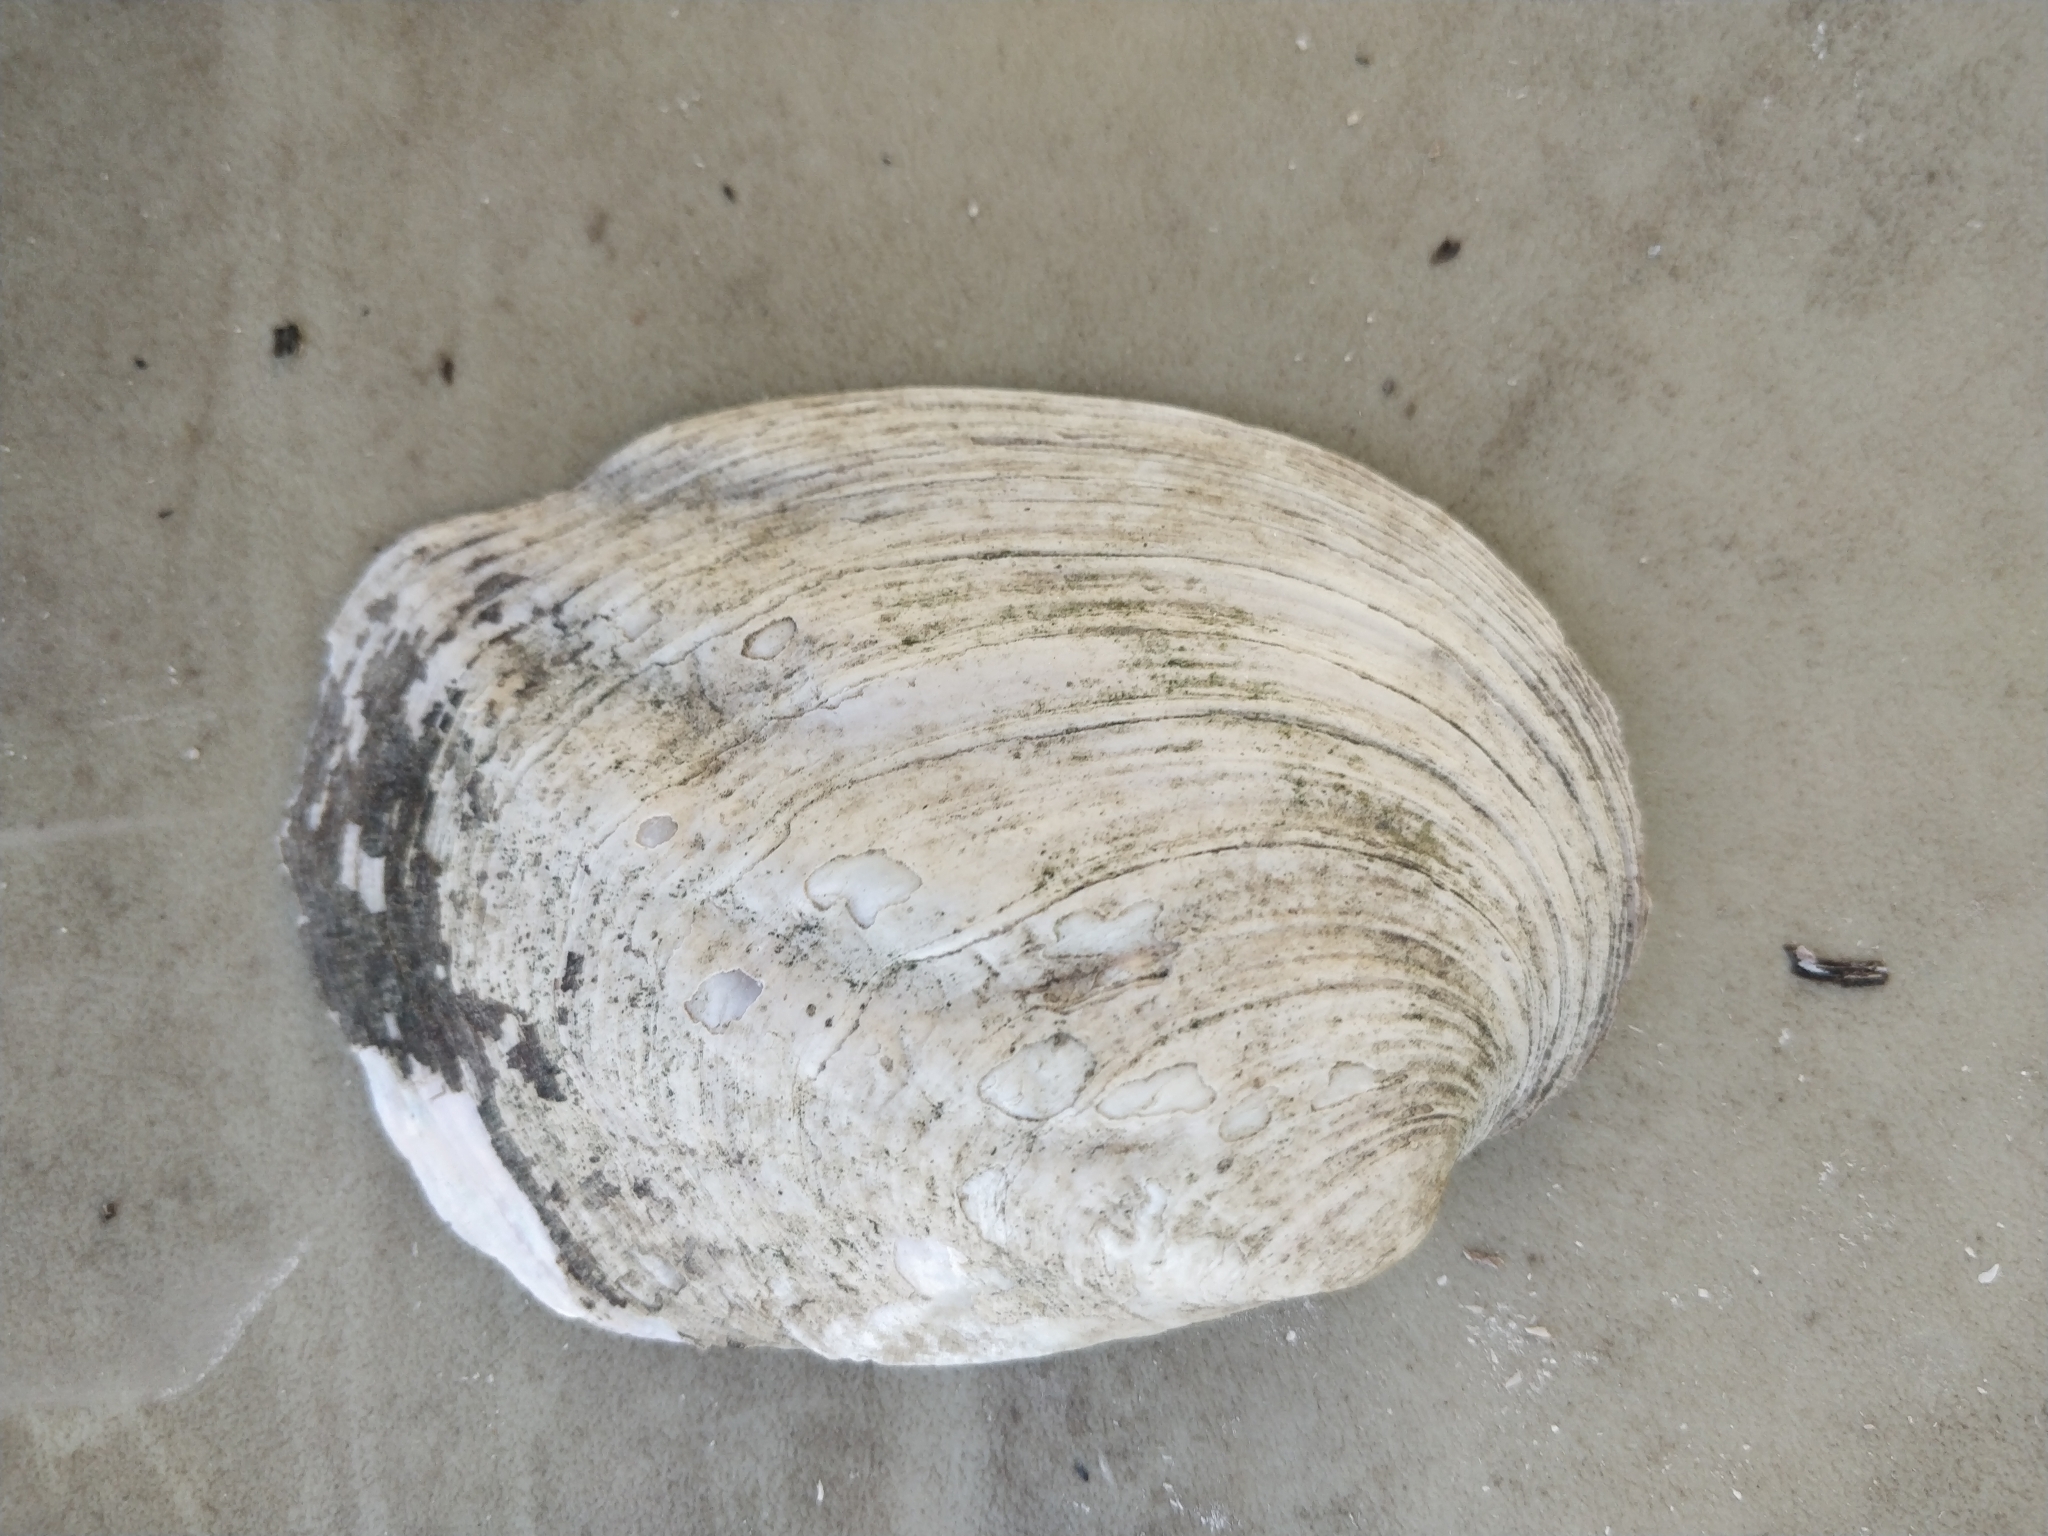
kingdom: Animalia
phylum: Mollusca
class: Bivalvia
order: Unionida
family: Unionidae
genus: Amblema
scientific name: Amblema plicata
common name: Threeridge
